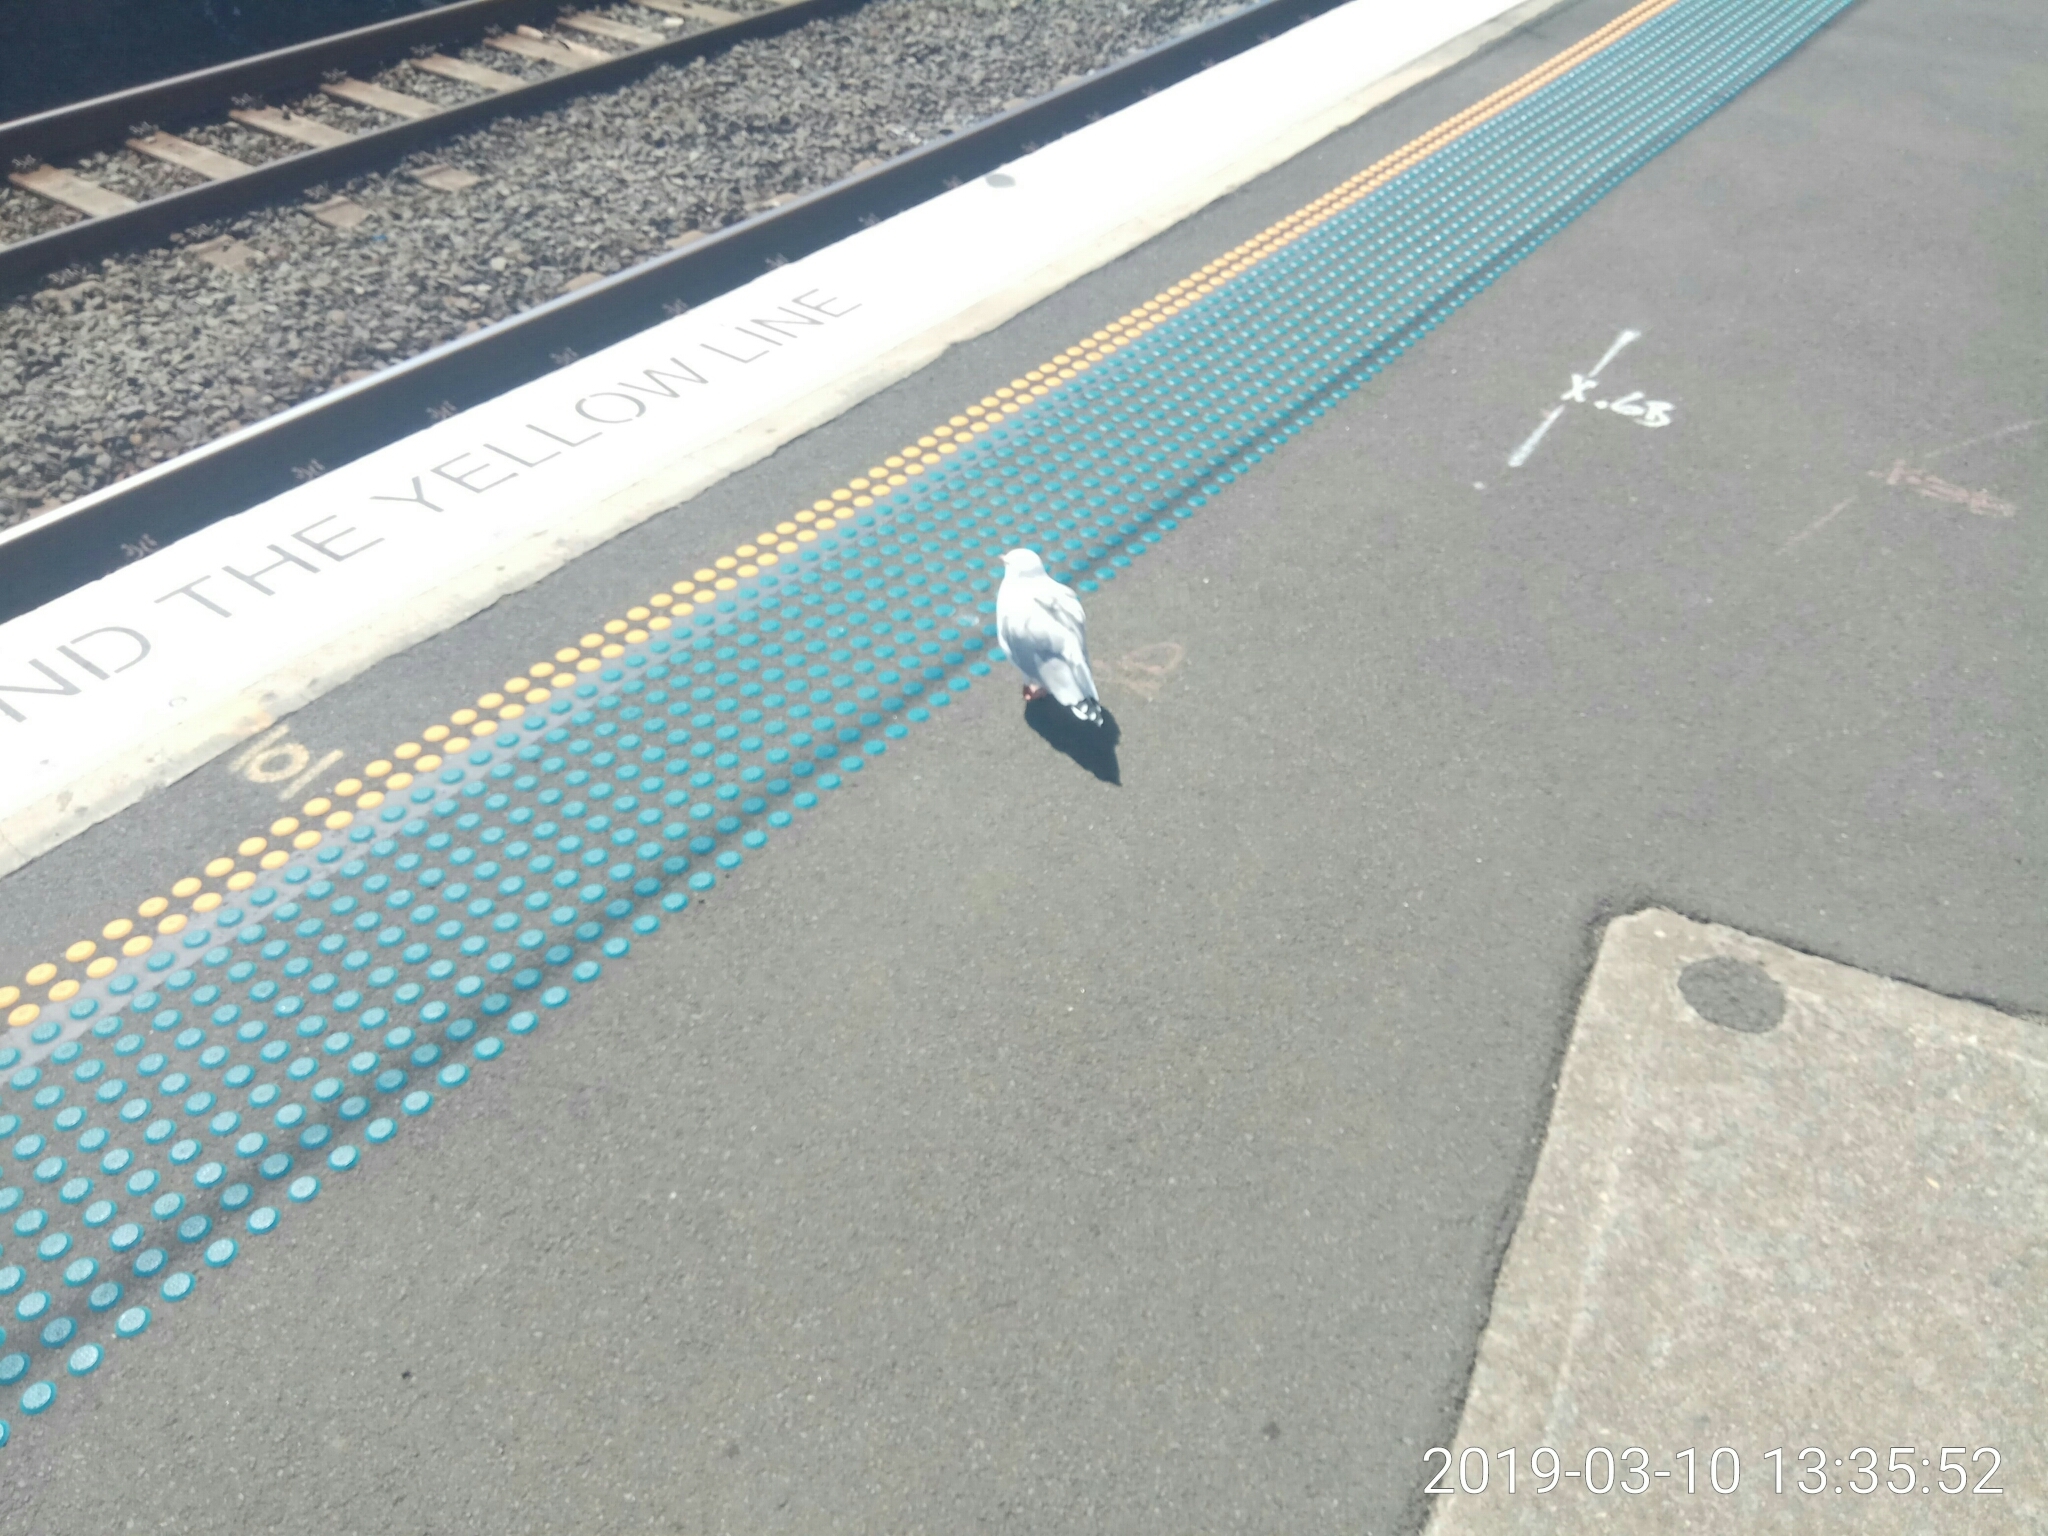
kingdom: Animalia
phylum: Chordata
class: Aves
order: Charadriiformes
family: Laridae
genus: Chroicocephalus
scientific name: Chroicocephalus novaehollandiae
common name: Silver gull
